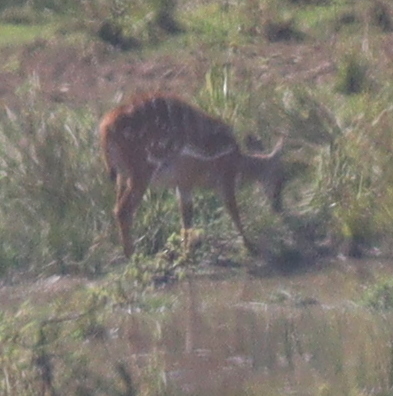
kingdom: Animalia
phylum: Chordata
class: Mammalia
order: Artiodactyla
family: Bovidae
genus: Tragelaphus
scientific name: Tragelaphus scriptus
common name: Bushbuck
